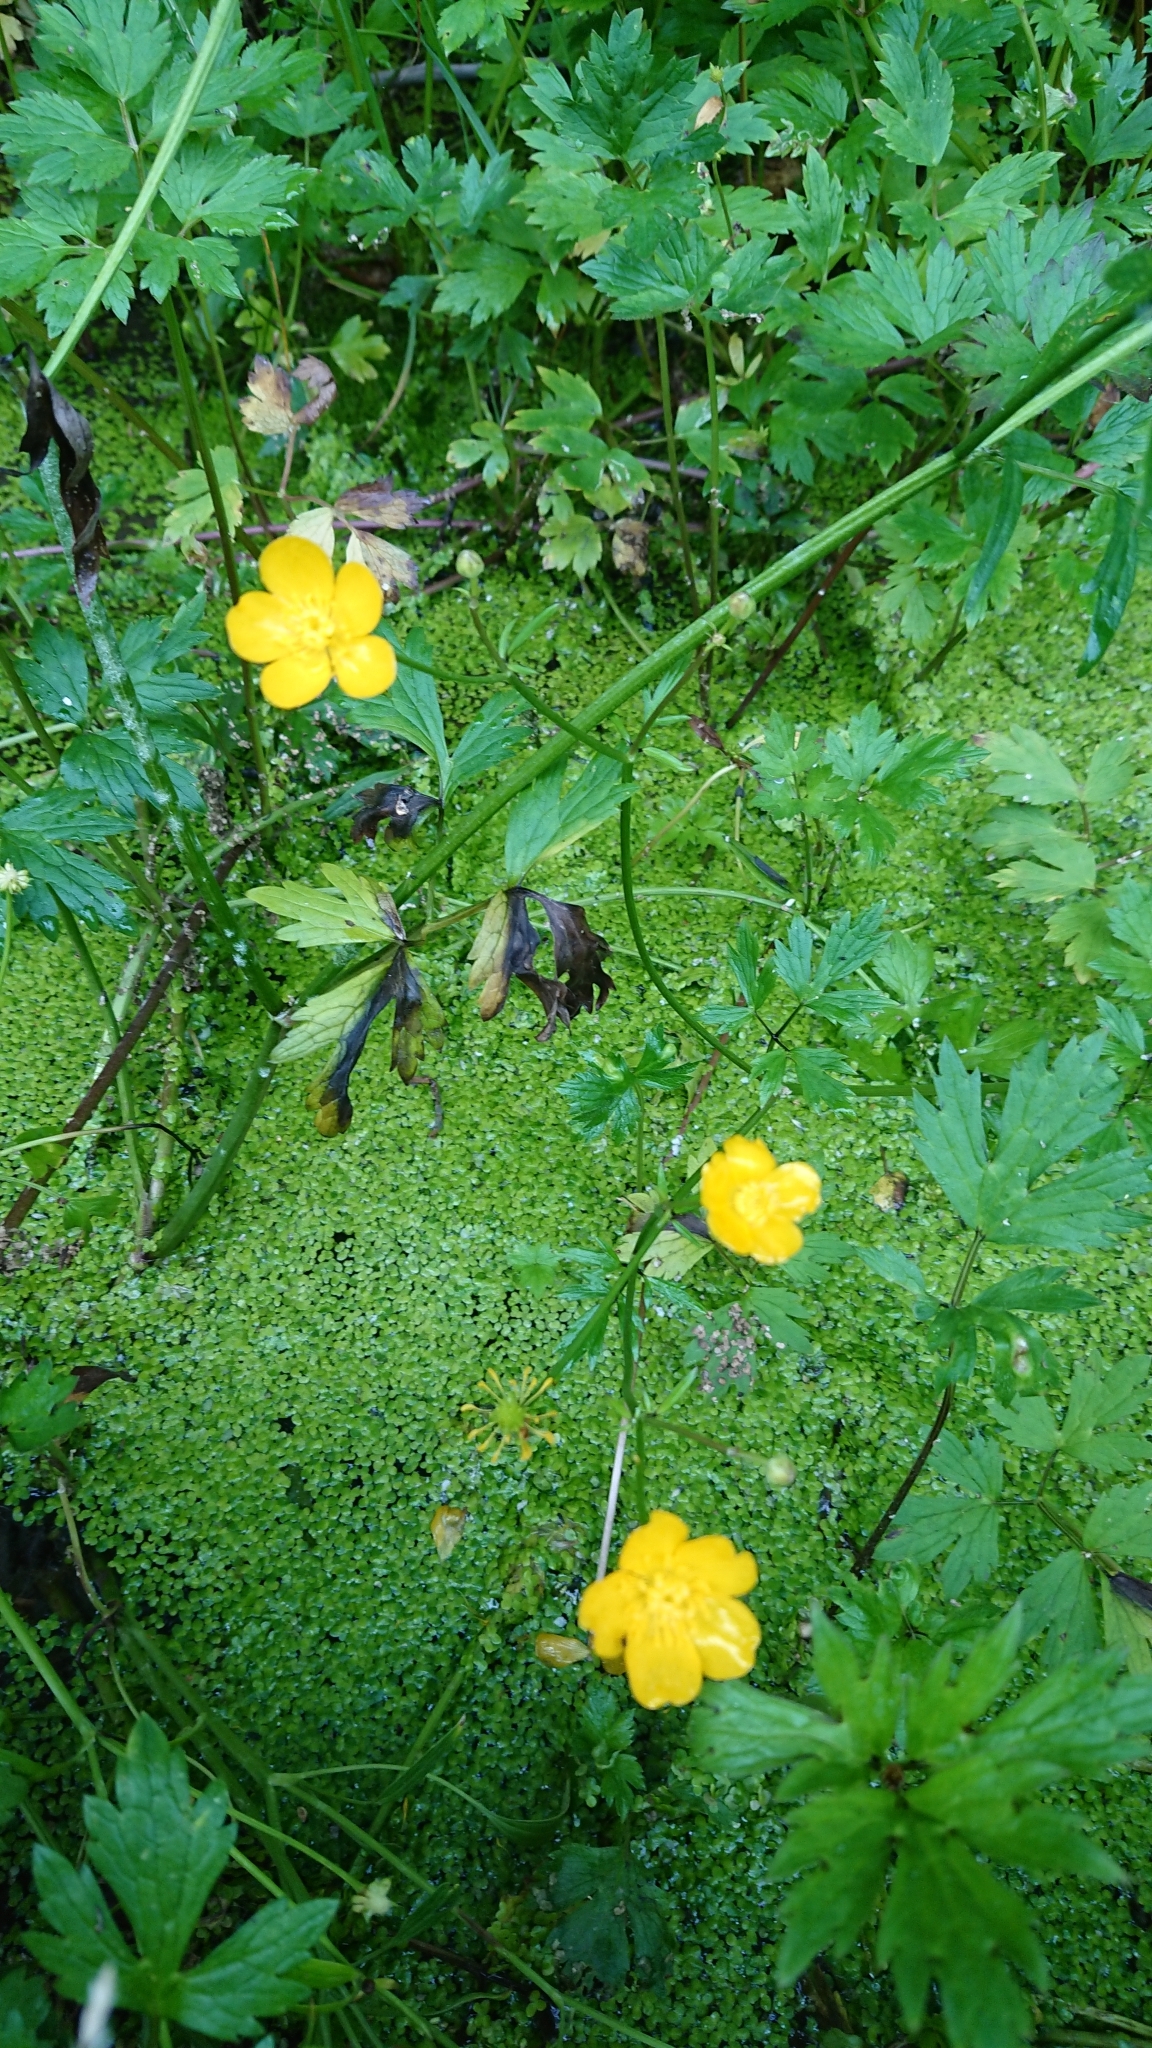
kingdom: Plantae
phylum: Tracheophyta
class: Magnoliopsida
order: Ranunculales
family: Ranunculaceae
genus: Ranunculus
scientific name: Ranunculus repens
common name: Creeping buttercup
